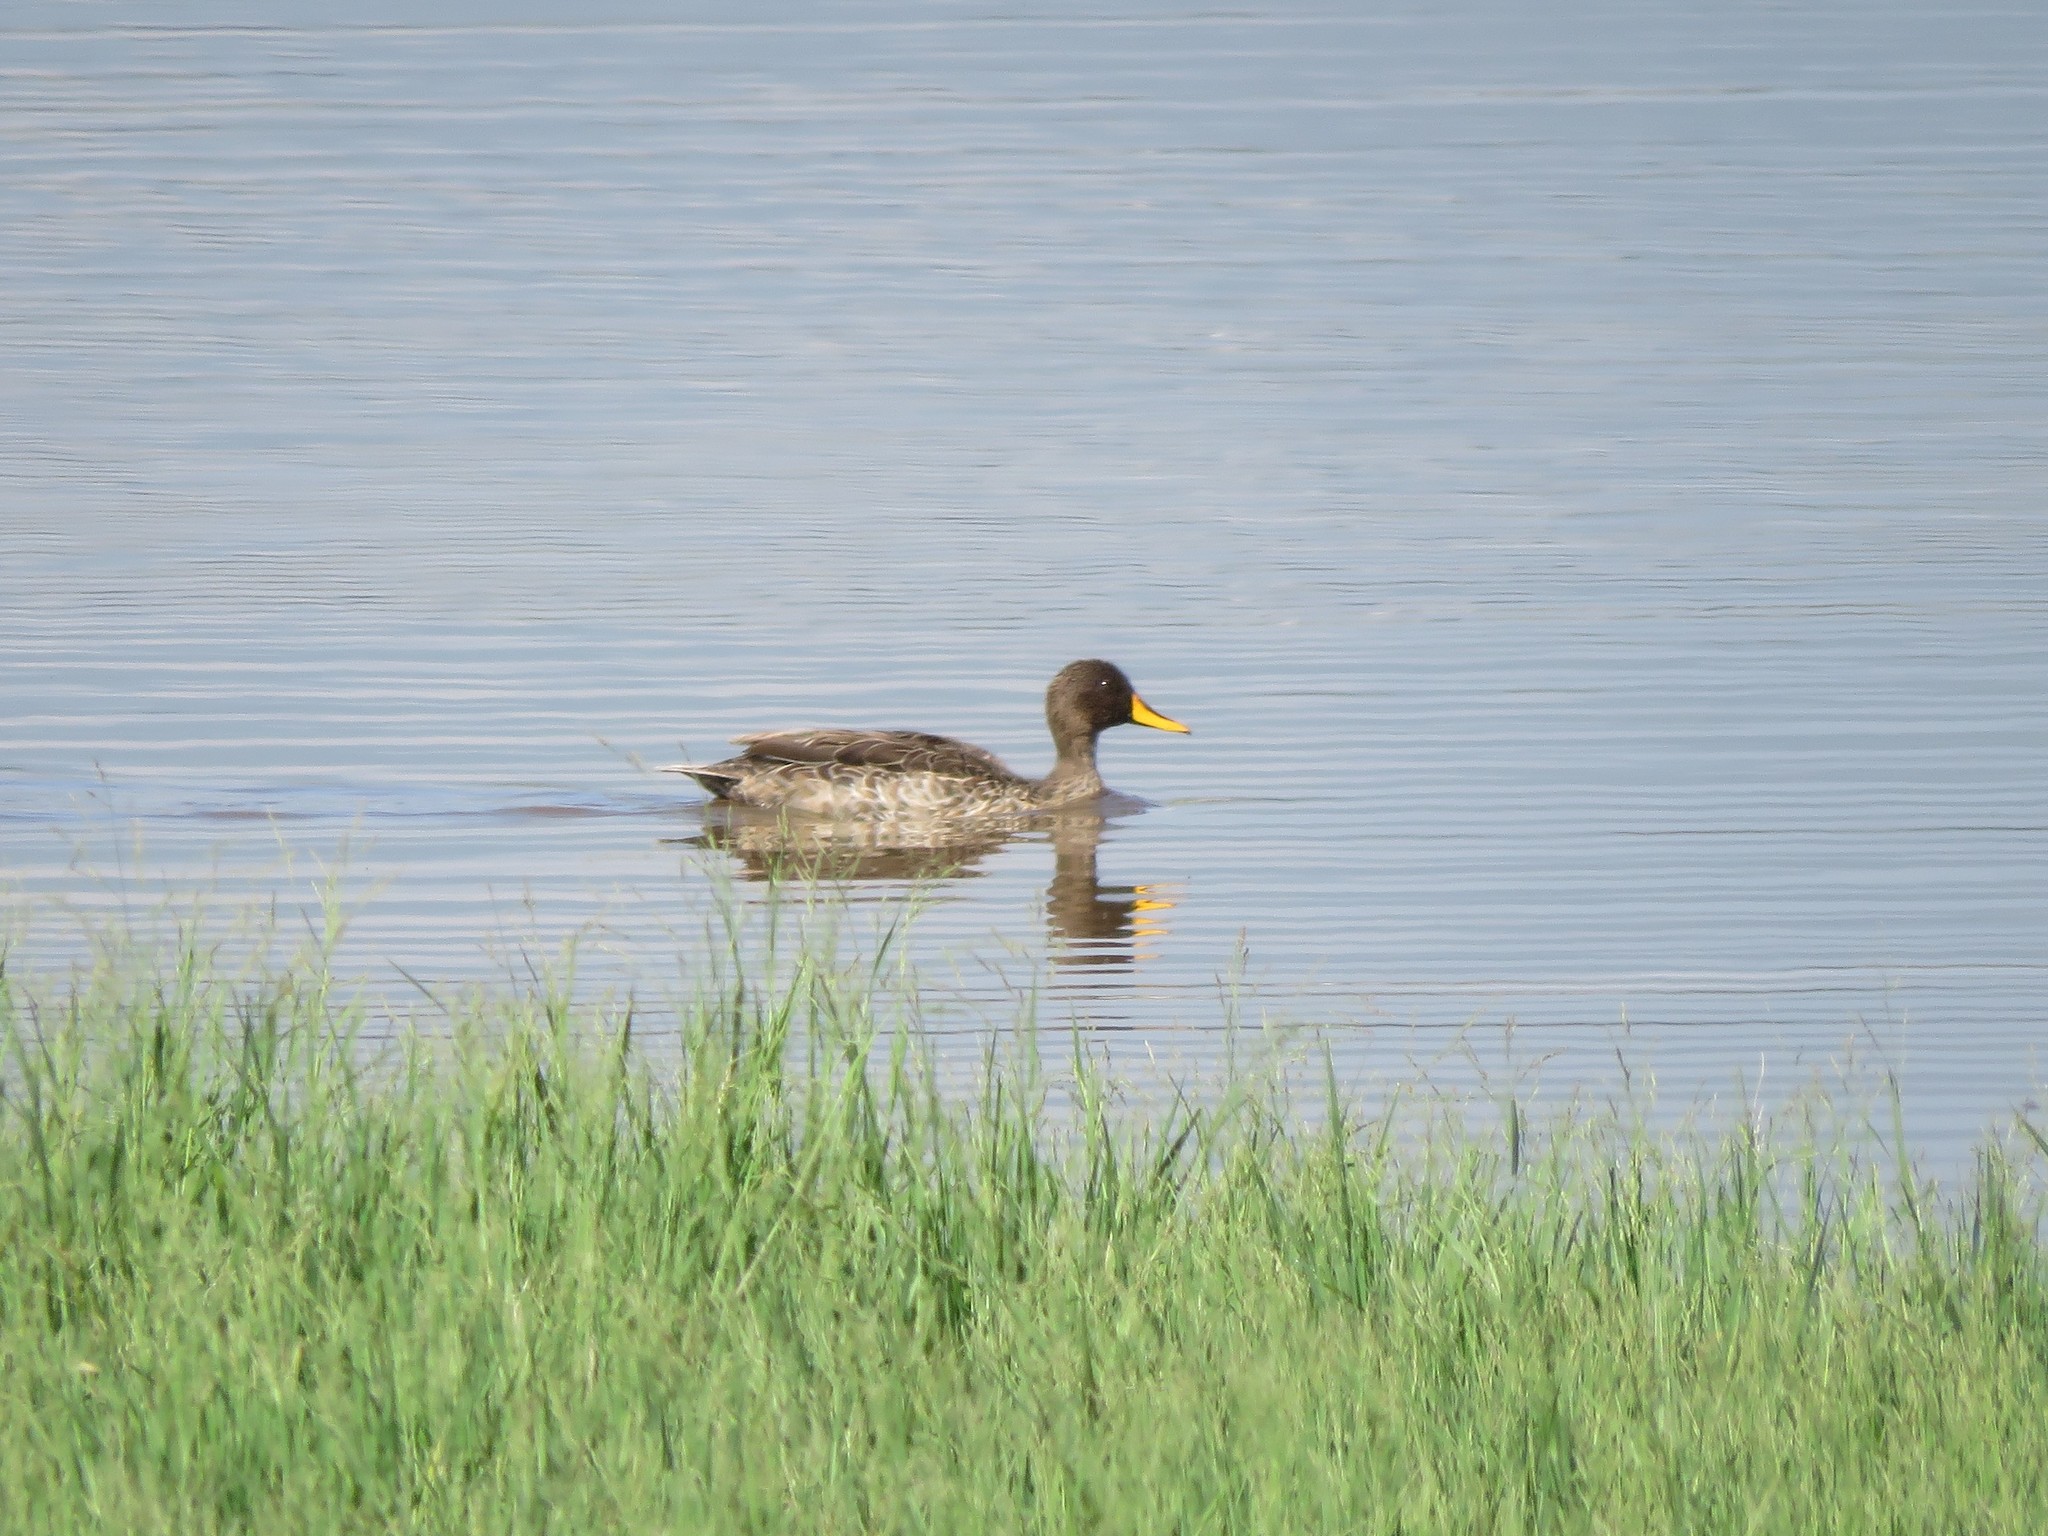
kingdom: Animalia
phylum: Chordata
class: Aves
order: Anseriformes
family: Anatidae
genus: Anas
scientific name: Anas undulata
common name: Yellow-billed duck
